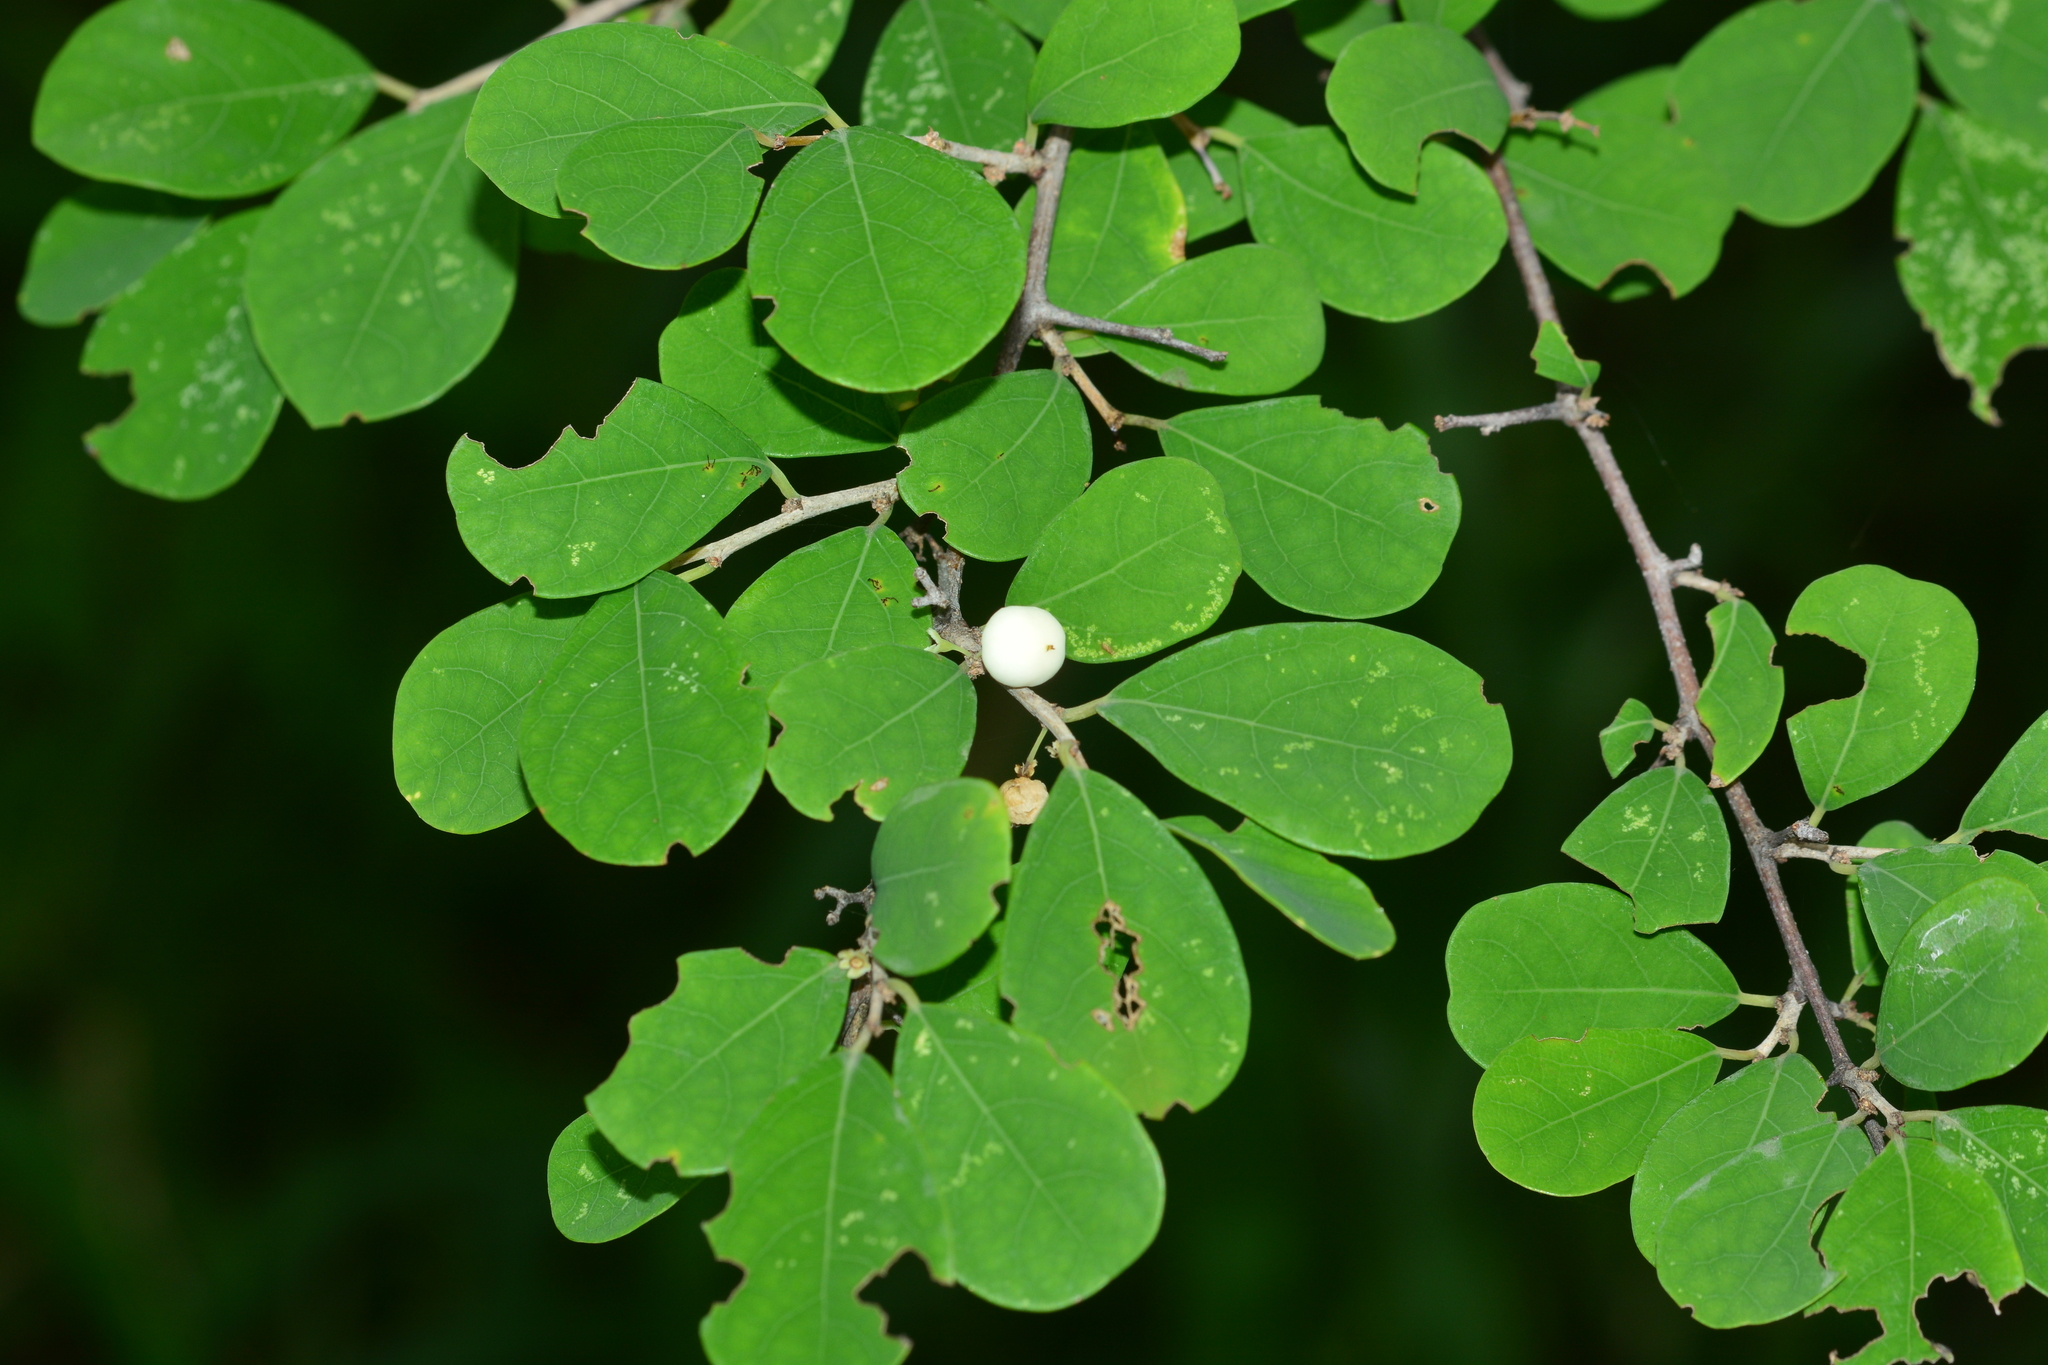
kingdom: Plantae
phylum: Tracheophyta
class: Magnoliopsida
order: Malpighiales
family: Phyllanthaceae
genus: Flueggea
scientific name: Flueggea virosa
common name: Common bushweed
